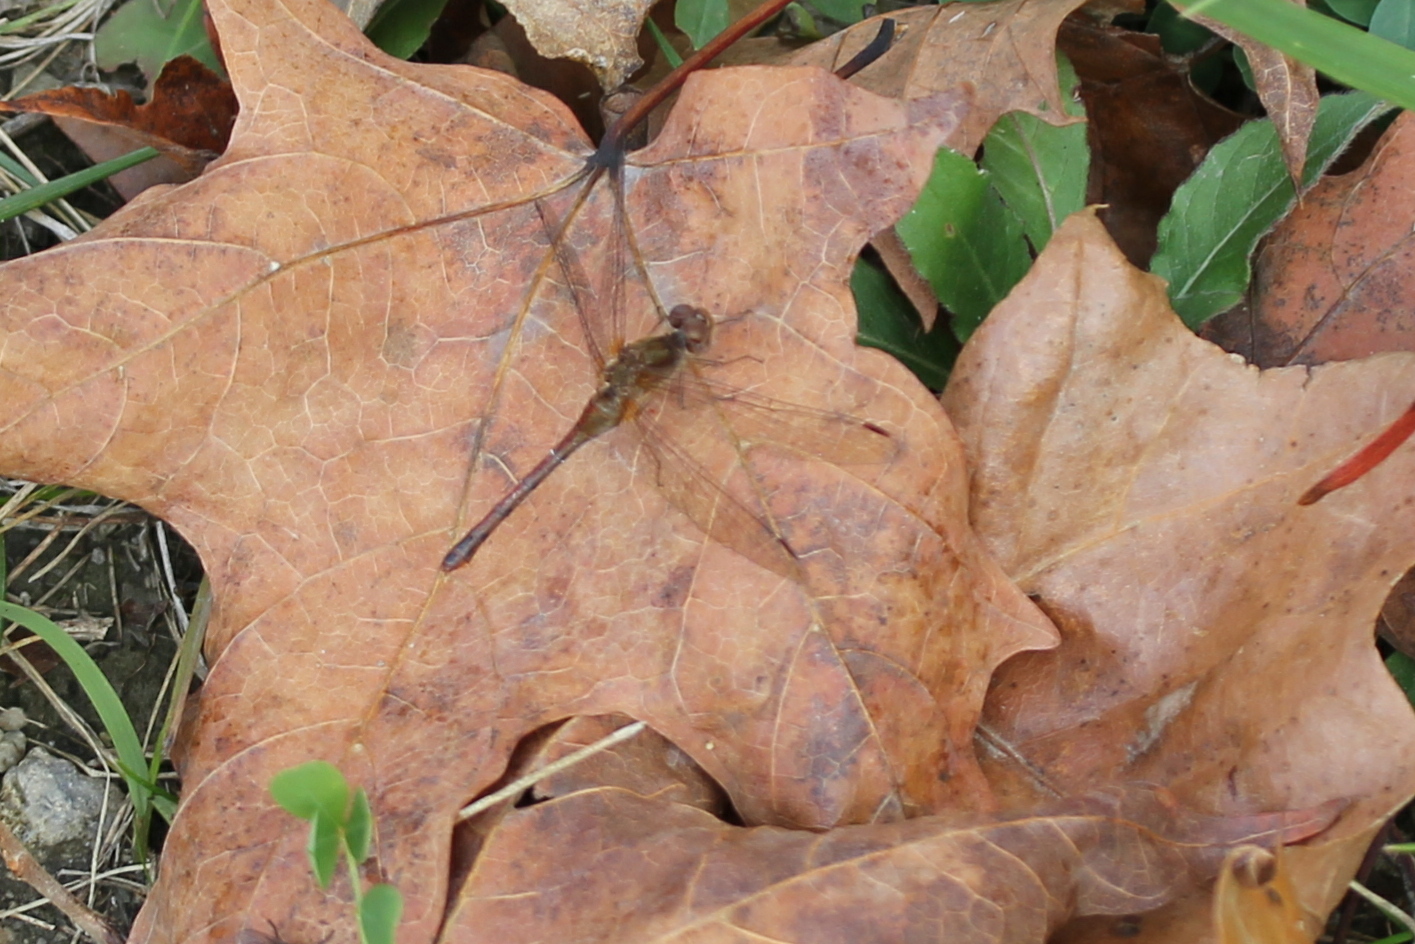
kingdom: Animalia
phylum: Arthropoda
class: Insecta
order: Odonata
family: Libellulidae
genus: Sympetrum
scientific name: Sympetrum vicinum
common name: Autumn meadowhawk
